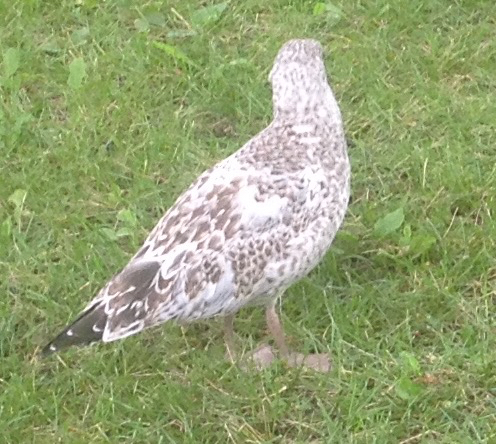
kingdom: Animalia
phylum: Chordata
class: Aves
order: Charadriiformes
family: Laridae
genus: Larus
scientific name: Larus delawarensis
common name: Ring-billed gull
